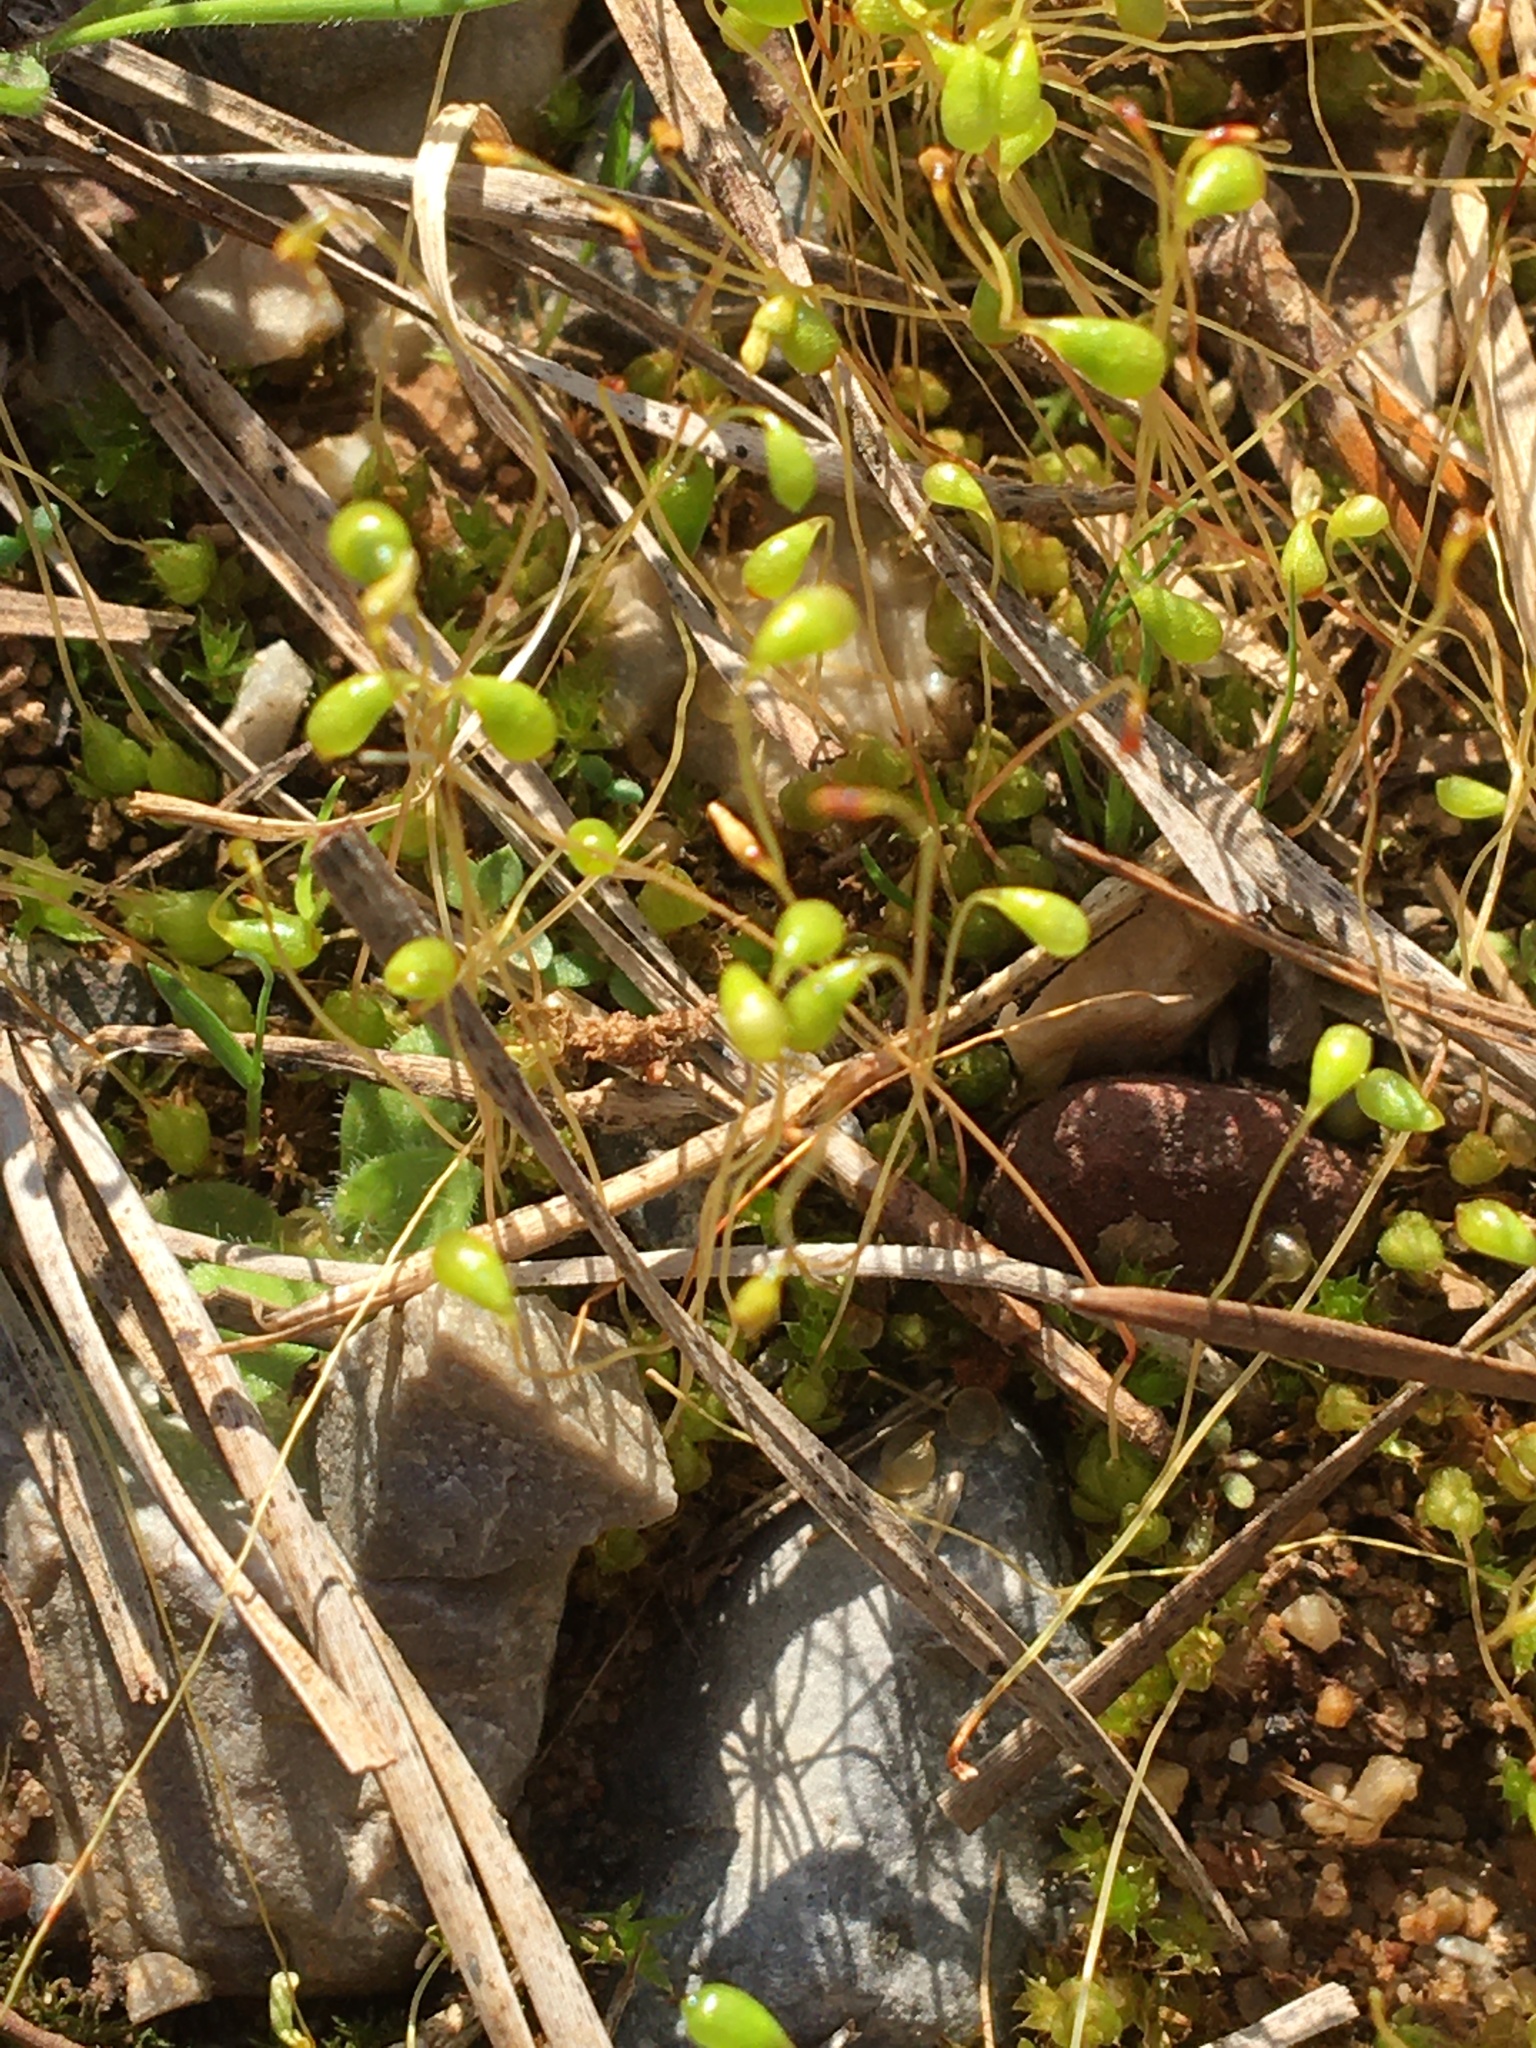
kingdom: Plantae
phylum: Bryophyta
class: Bryopsida
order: Funariales
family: Funariaceae
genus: Funaria
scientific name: Funaria hygrometrica
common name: Common cord moss
